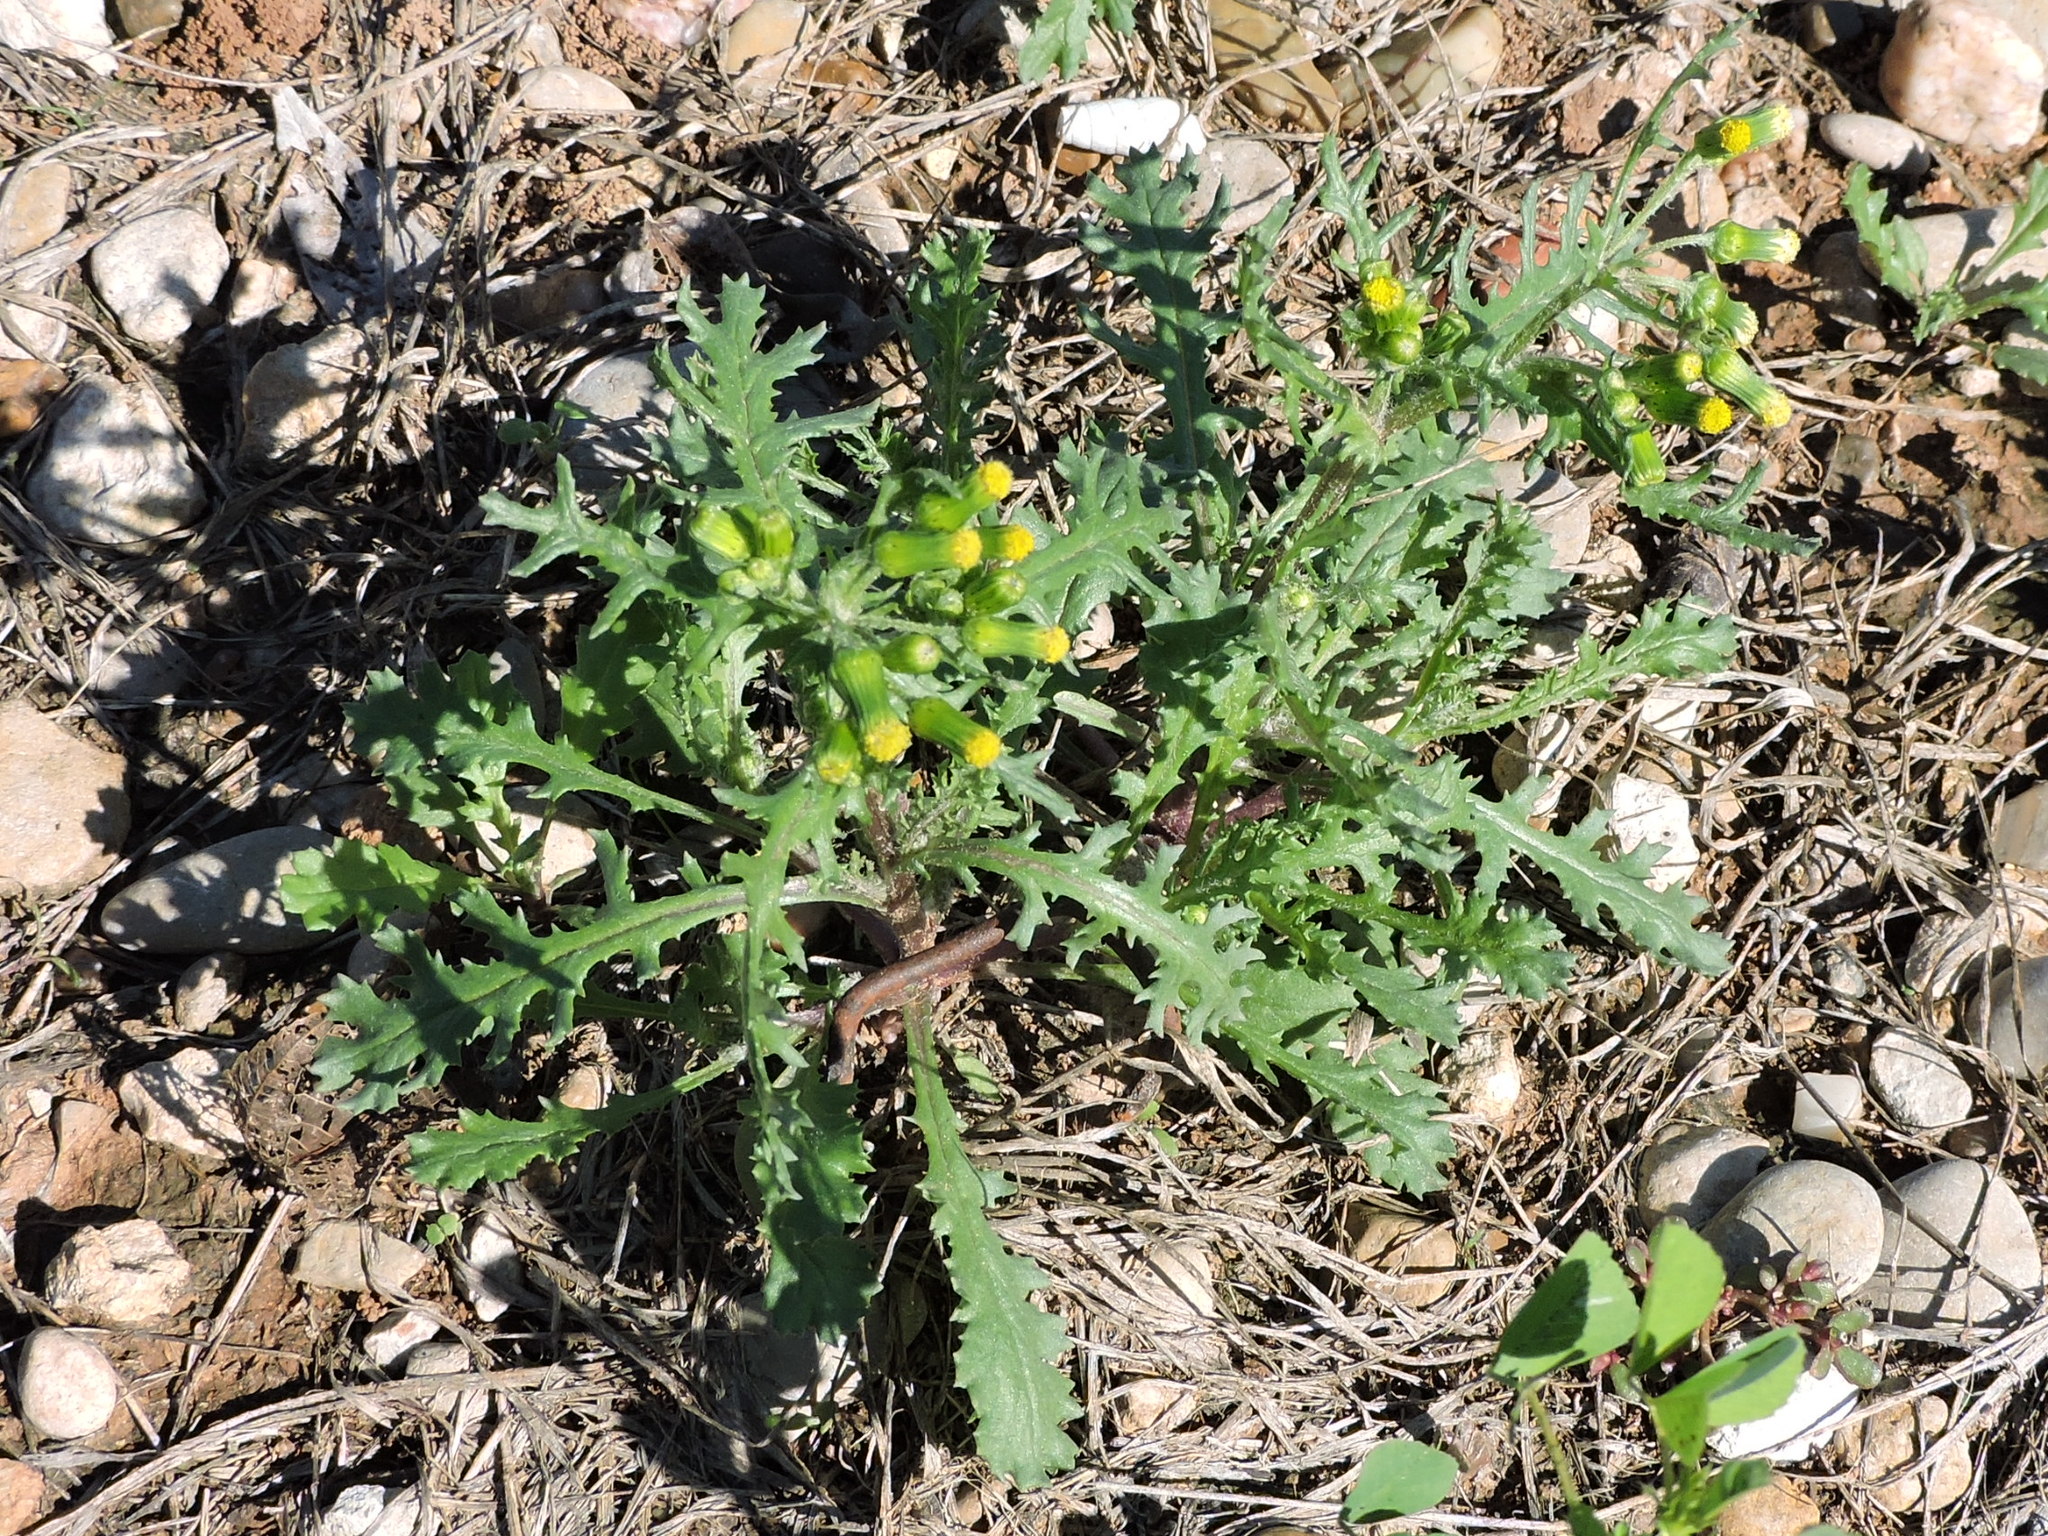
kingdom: Plantae
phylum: Tracheophyta
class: Magnoliopsida
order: Asterales
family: Asteraceae
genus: Senecio
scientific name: Senecio vulgaris
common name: Old-man-in-the-spring
